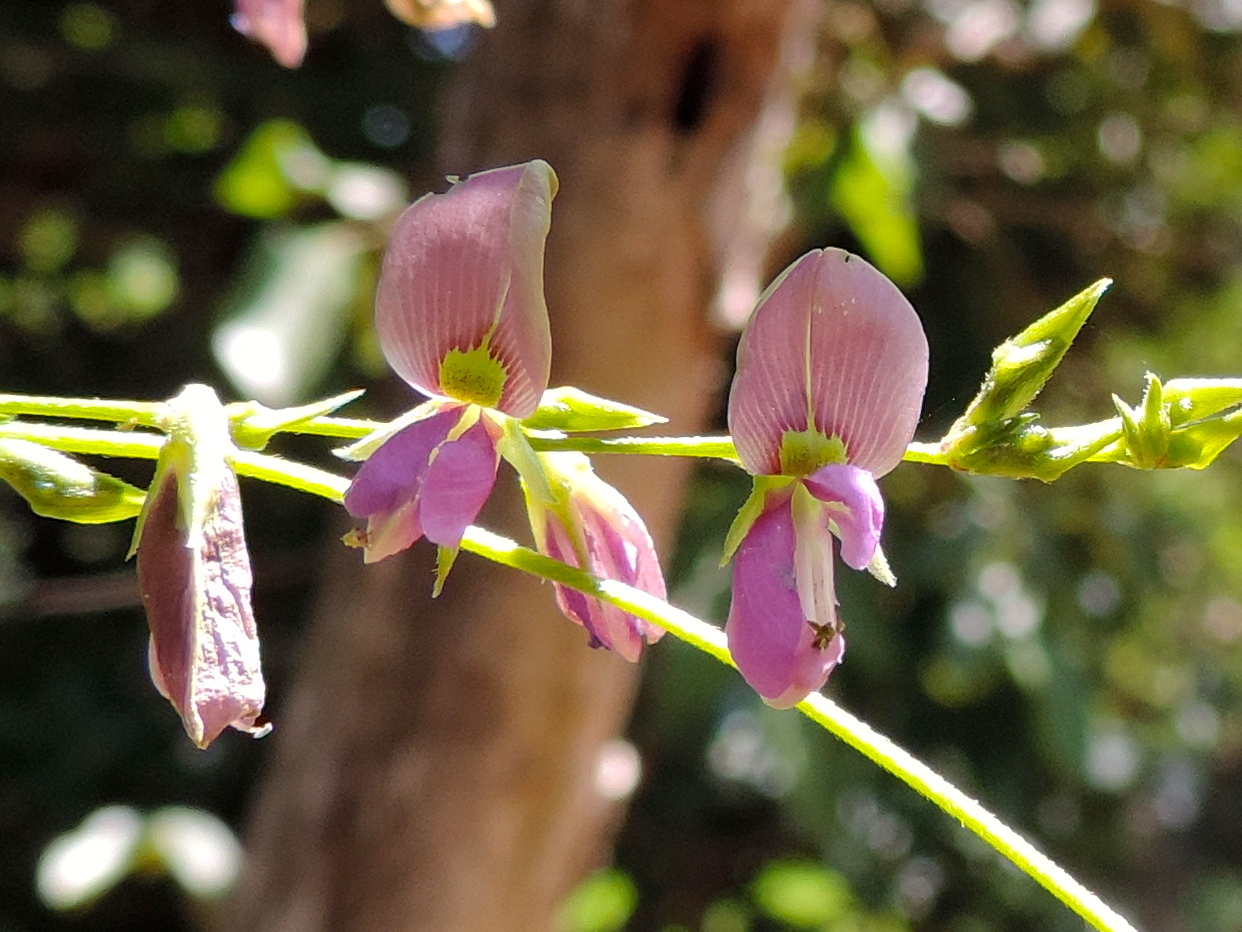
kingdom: Plantae
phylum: Tracheophyta
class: Magnoliopsida
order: Fabales
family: Fabaceae
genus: Galactia
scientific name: Galactia striata
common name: Florida hammock milkpea
